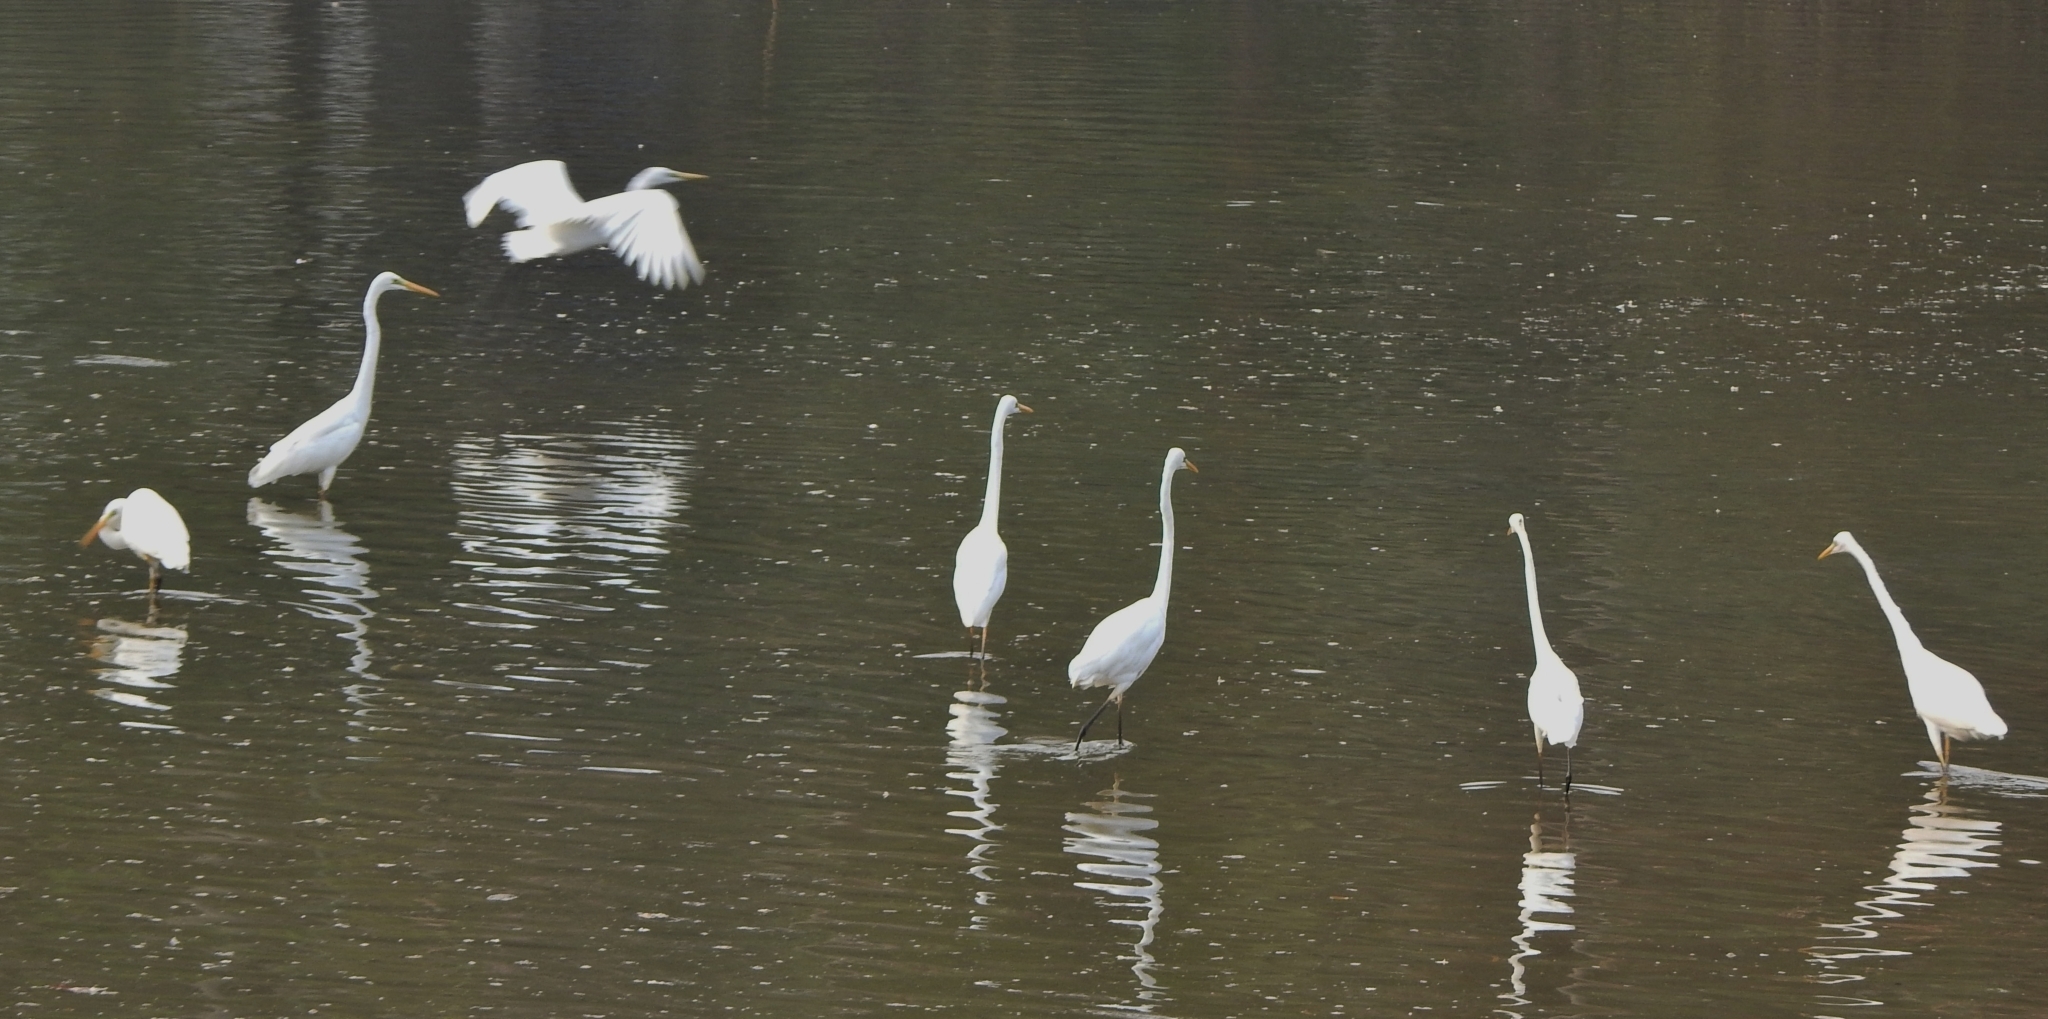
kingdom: Animalia
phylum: Chordata
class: Aves
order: Pelecaniformes
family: Ardeidae
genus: Ardea
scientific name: Ardea alba
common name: Great egret
